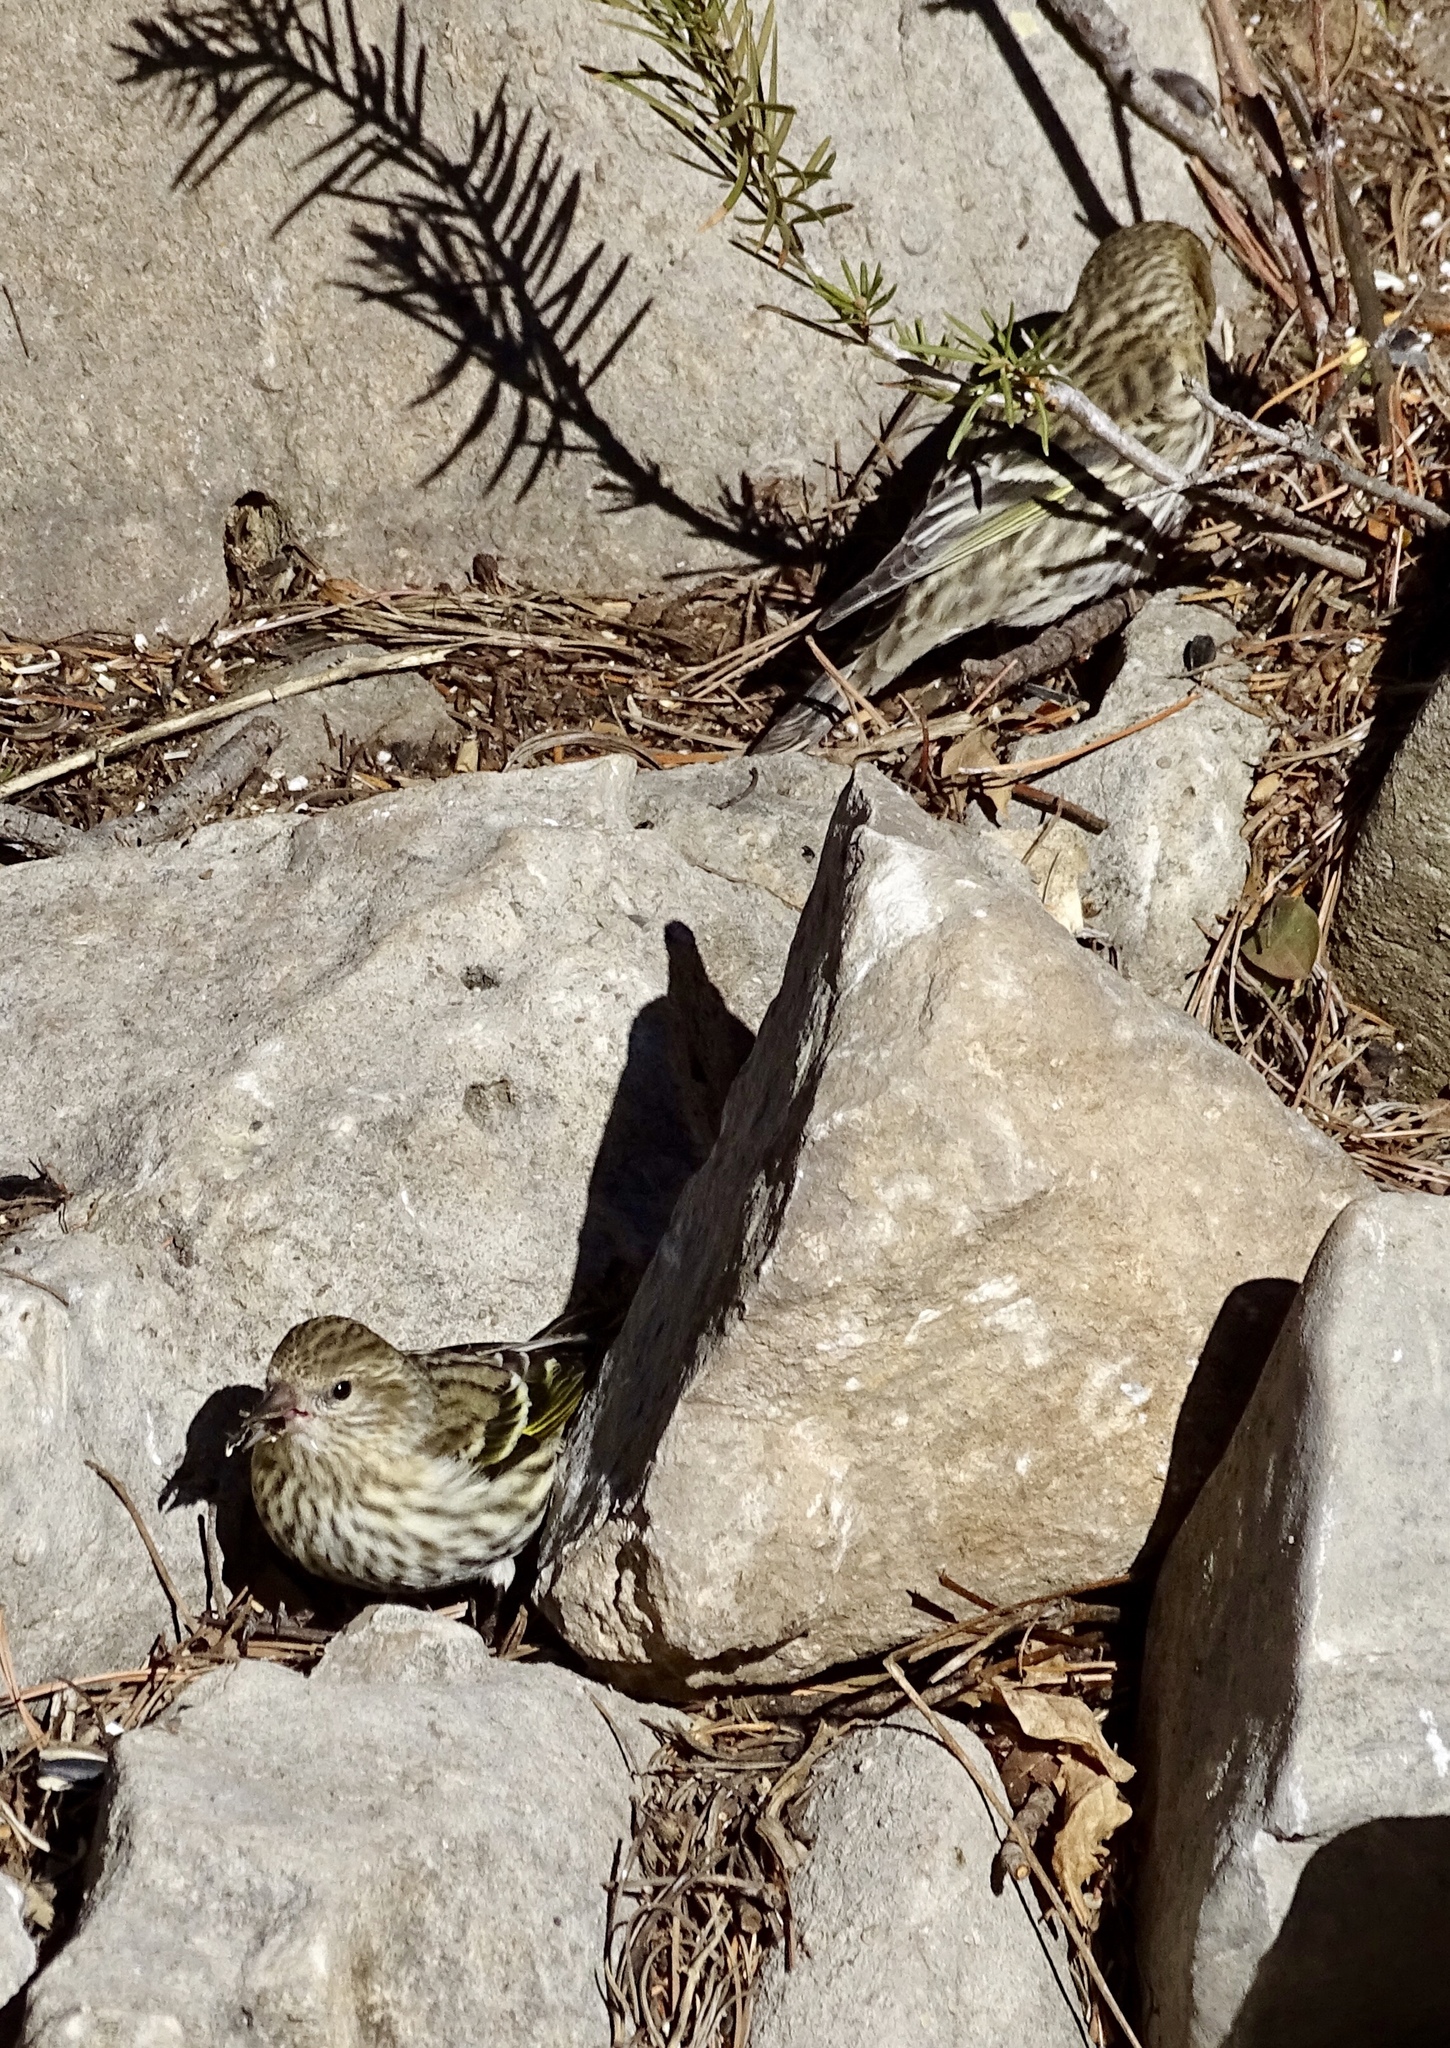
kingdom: Animalia
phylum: Chordata
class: Aves
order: Passeriformes
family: Fringillidae
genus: Spinus
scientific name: Spinus pinus
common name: Pine siskin
